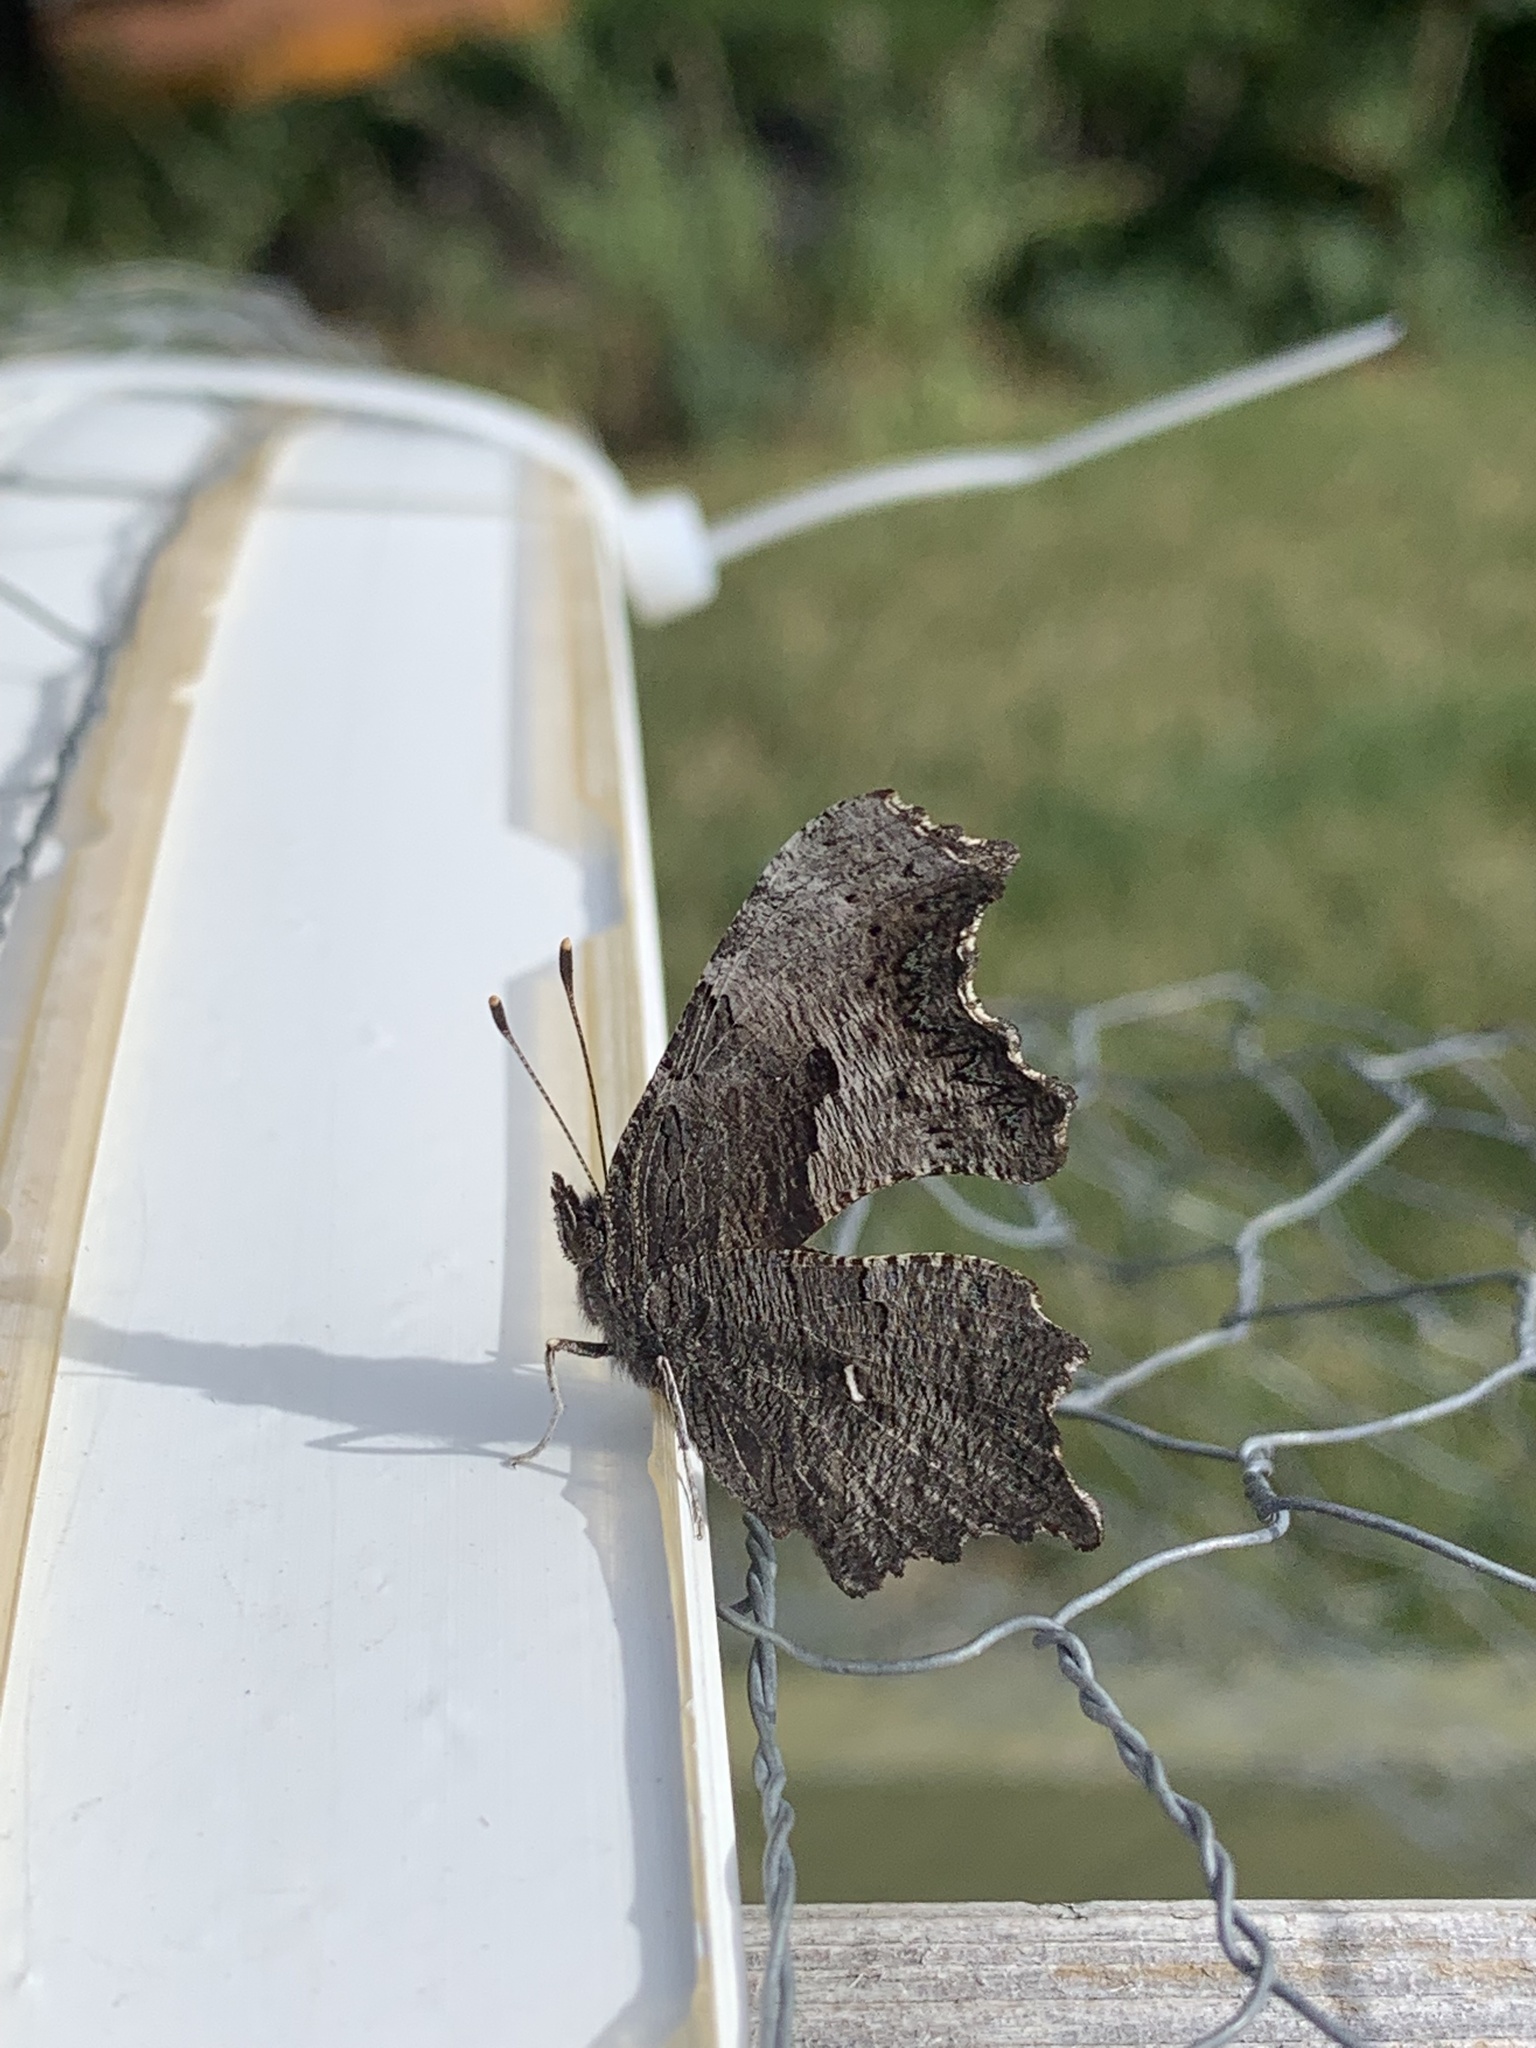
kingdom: Animalia
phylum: Arthropoda
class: Insecta
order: Lepidoptera
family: Nymphalidae
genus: Polygonia
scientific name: Polygonia progne
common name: Gray comma
